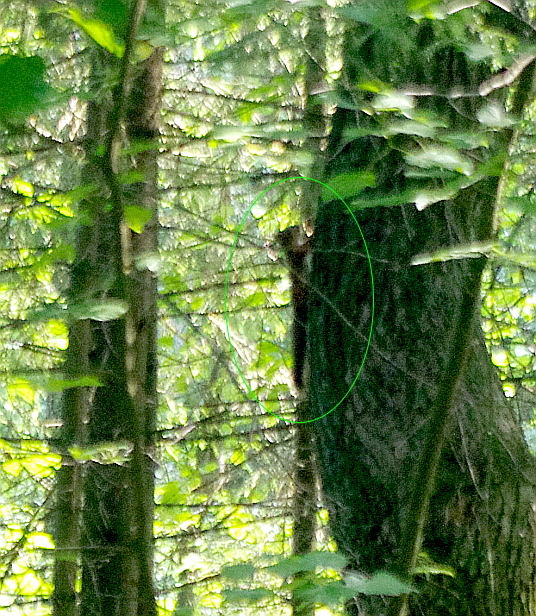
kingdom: Animalia
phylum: Chordata
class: Mammalia
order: Rodentia
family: Sciuridae
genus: Sciurus
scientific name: Sciurus vulgaris
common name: Eurasian red squirrel
